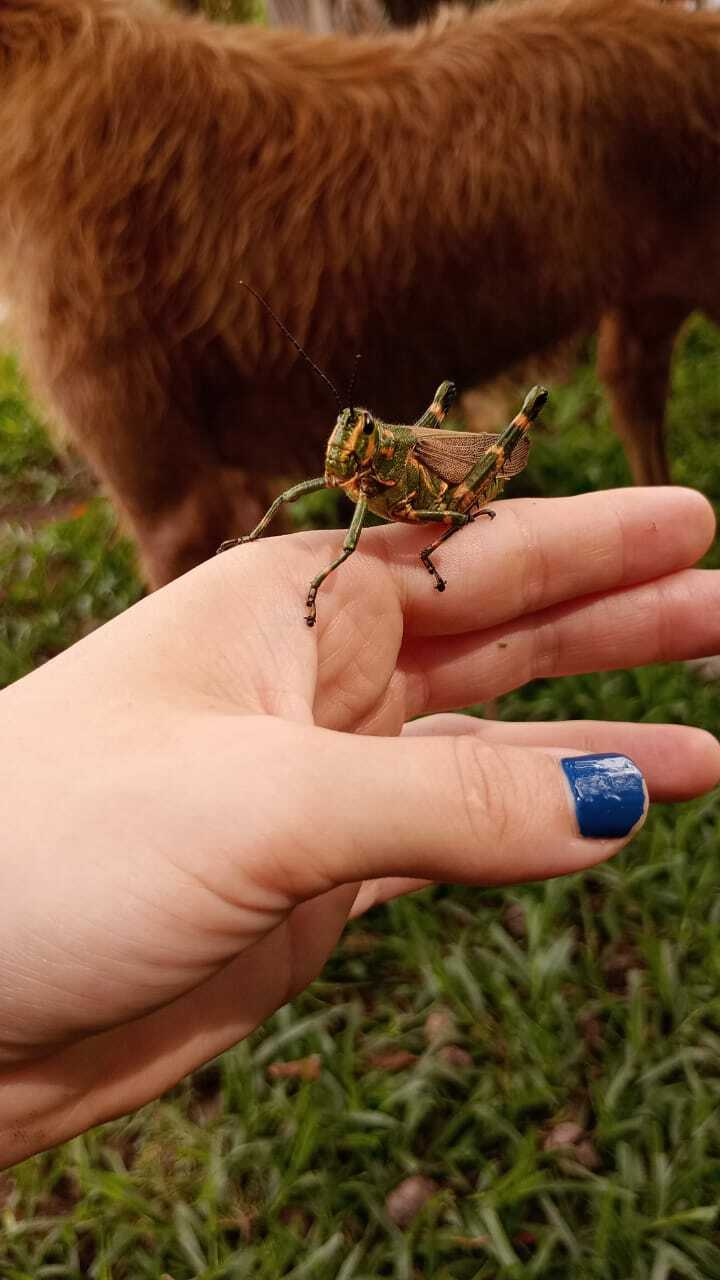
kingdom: Animalia
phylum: Arthropoda
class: Insecta
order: Orthoptera
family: Romaleidae
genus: Chromacris
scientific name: Chromacris speciosa
